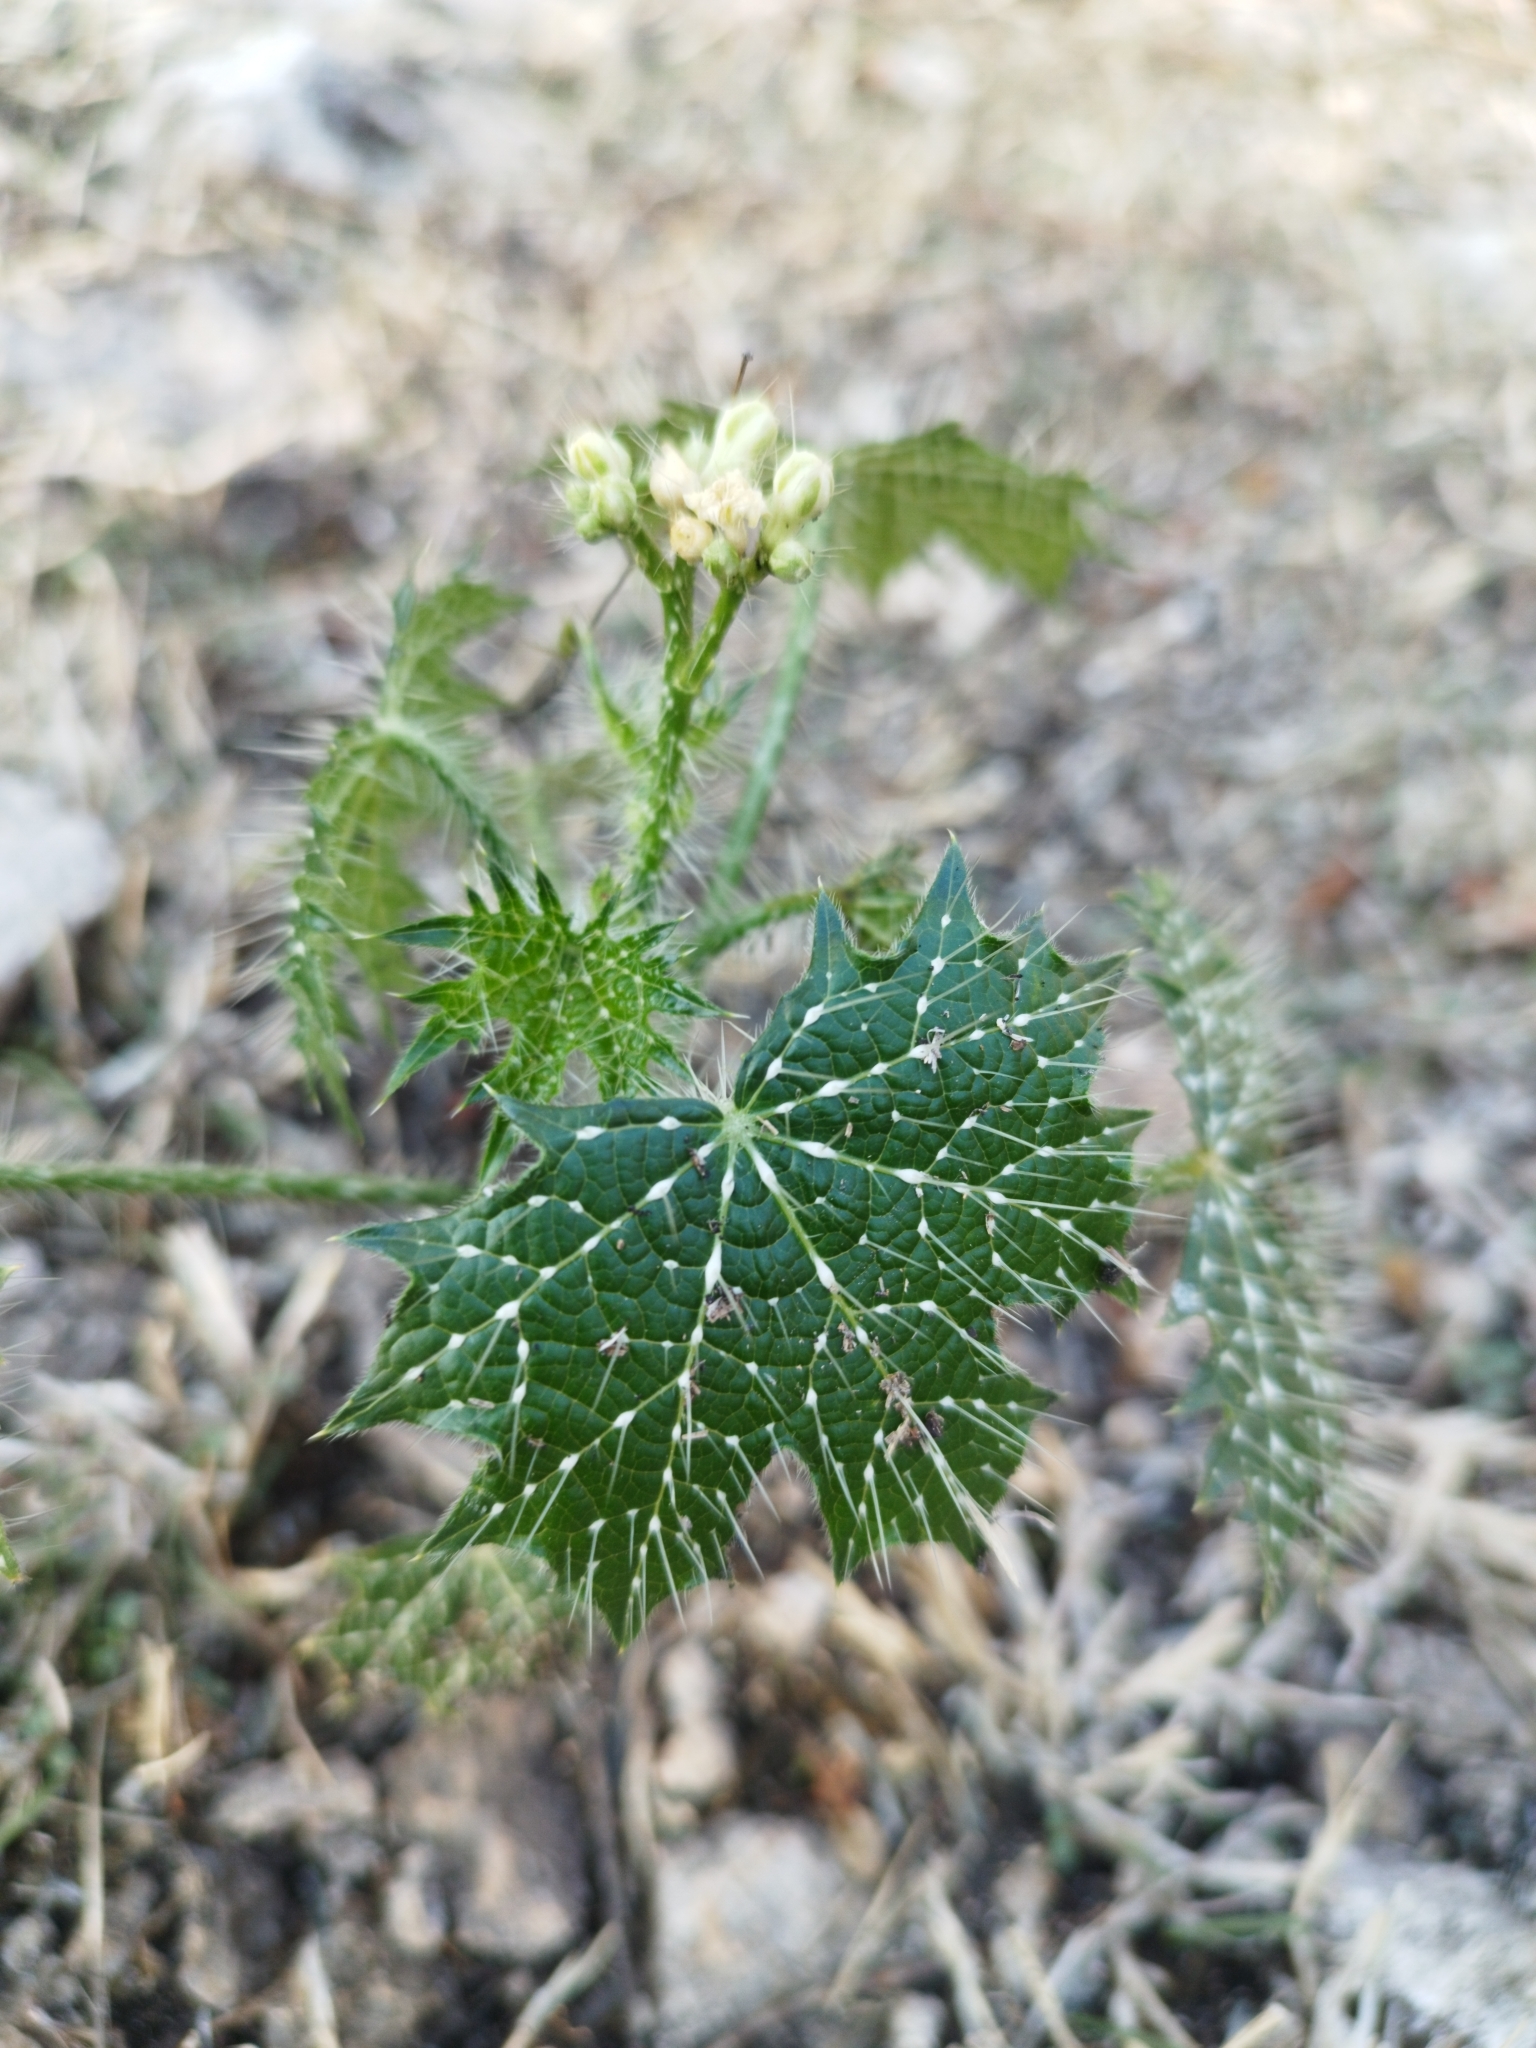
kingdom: Plantae
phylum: Tracheophyta
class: Magnoliopsida
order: Malpighiales
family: Euphorbiaceae
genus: Cnidoscolus
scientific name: Cnidoscolus angustidens
